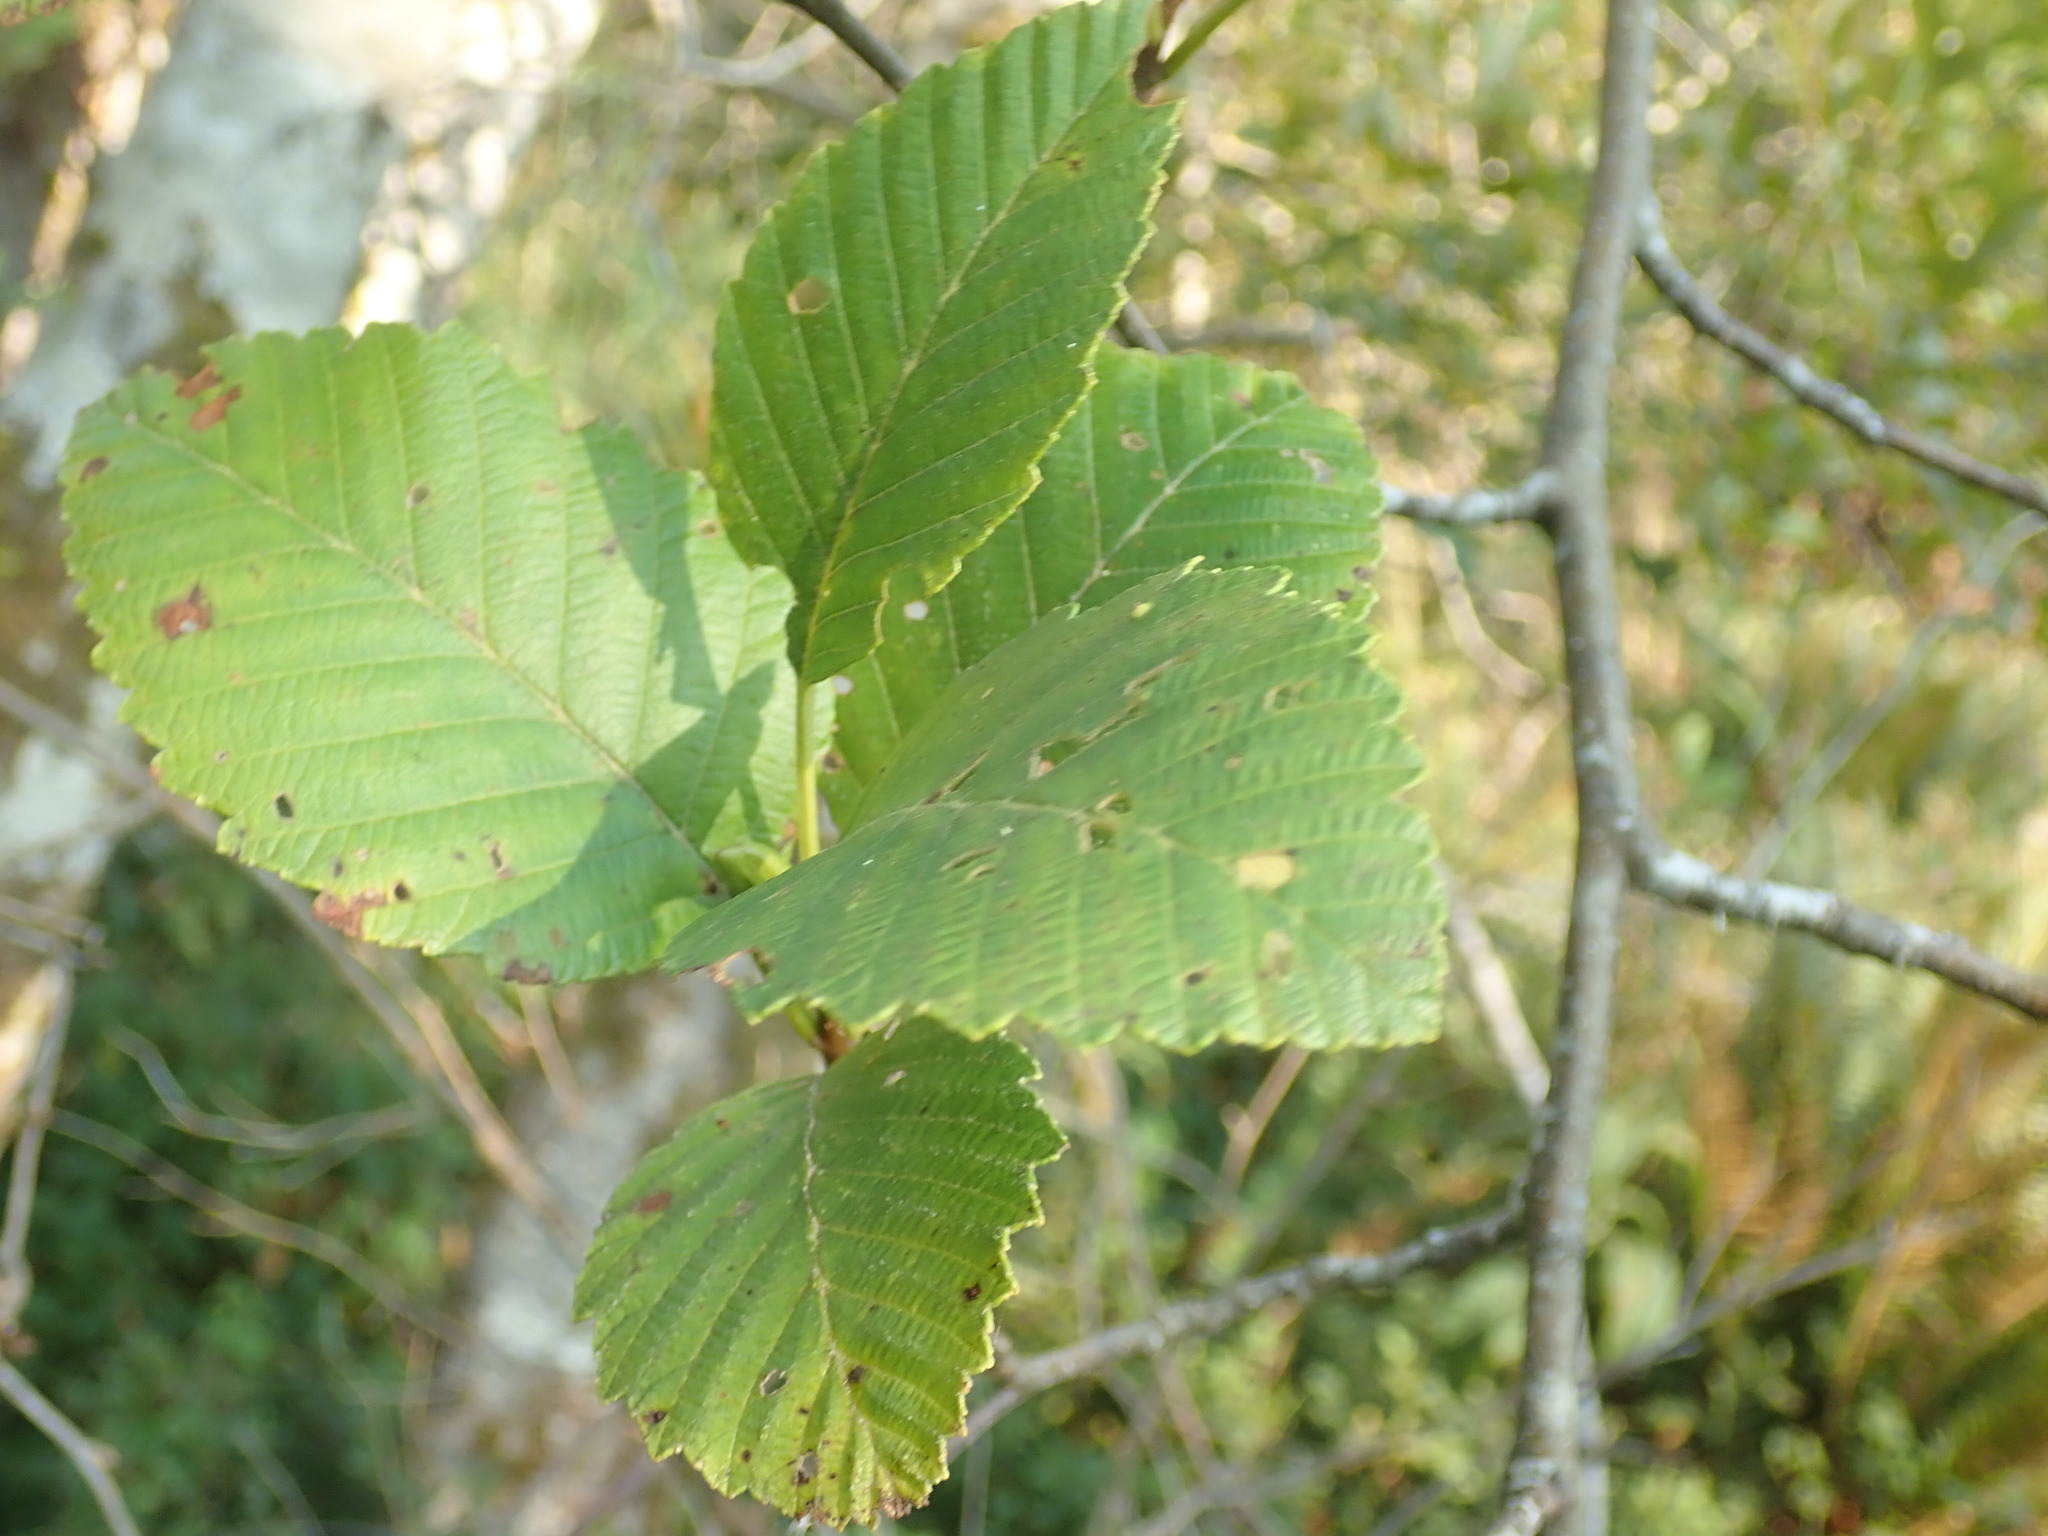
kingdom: Plantae
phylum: Tracheophyta
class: Magnoliopsida
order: Fagales
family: Betulaceae
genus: Alnus
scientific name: Alnus rubra
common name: Red alder
